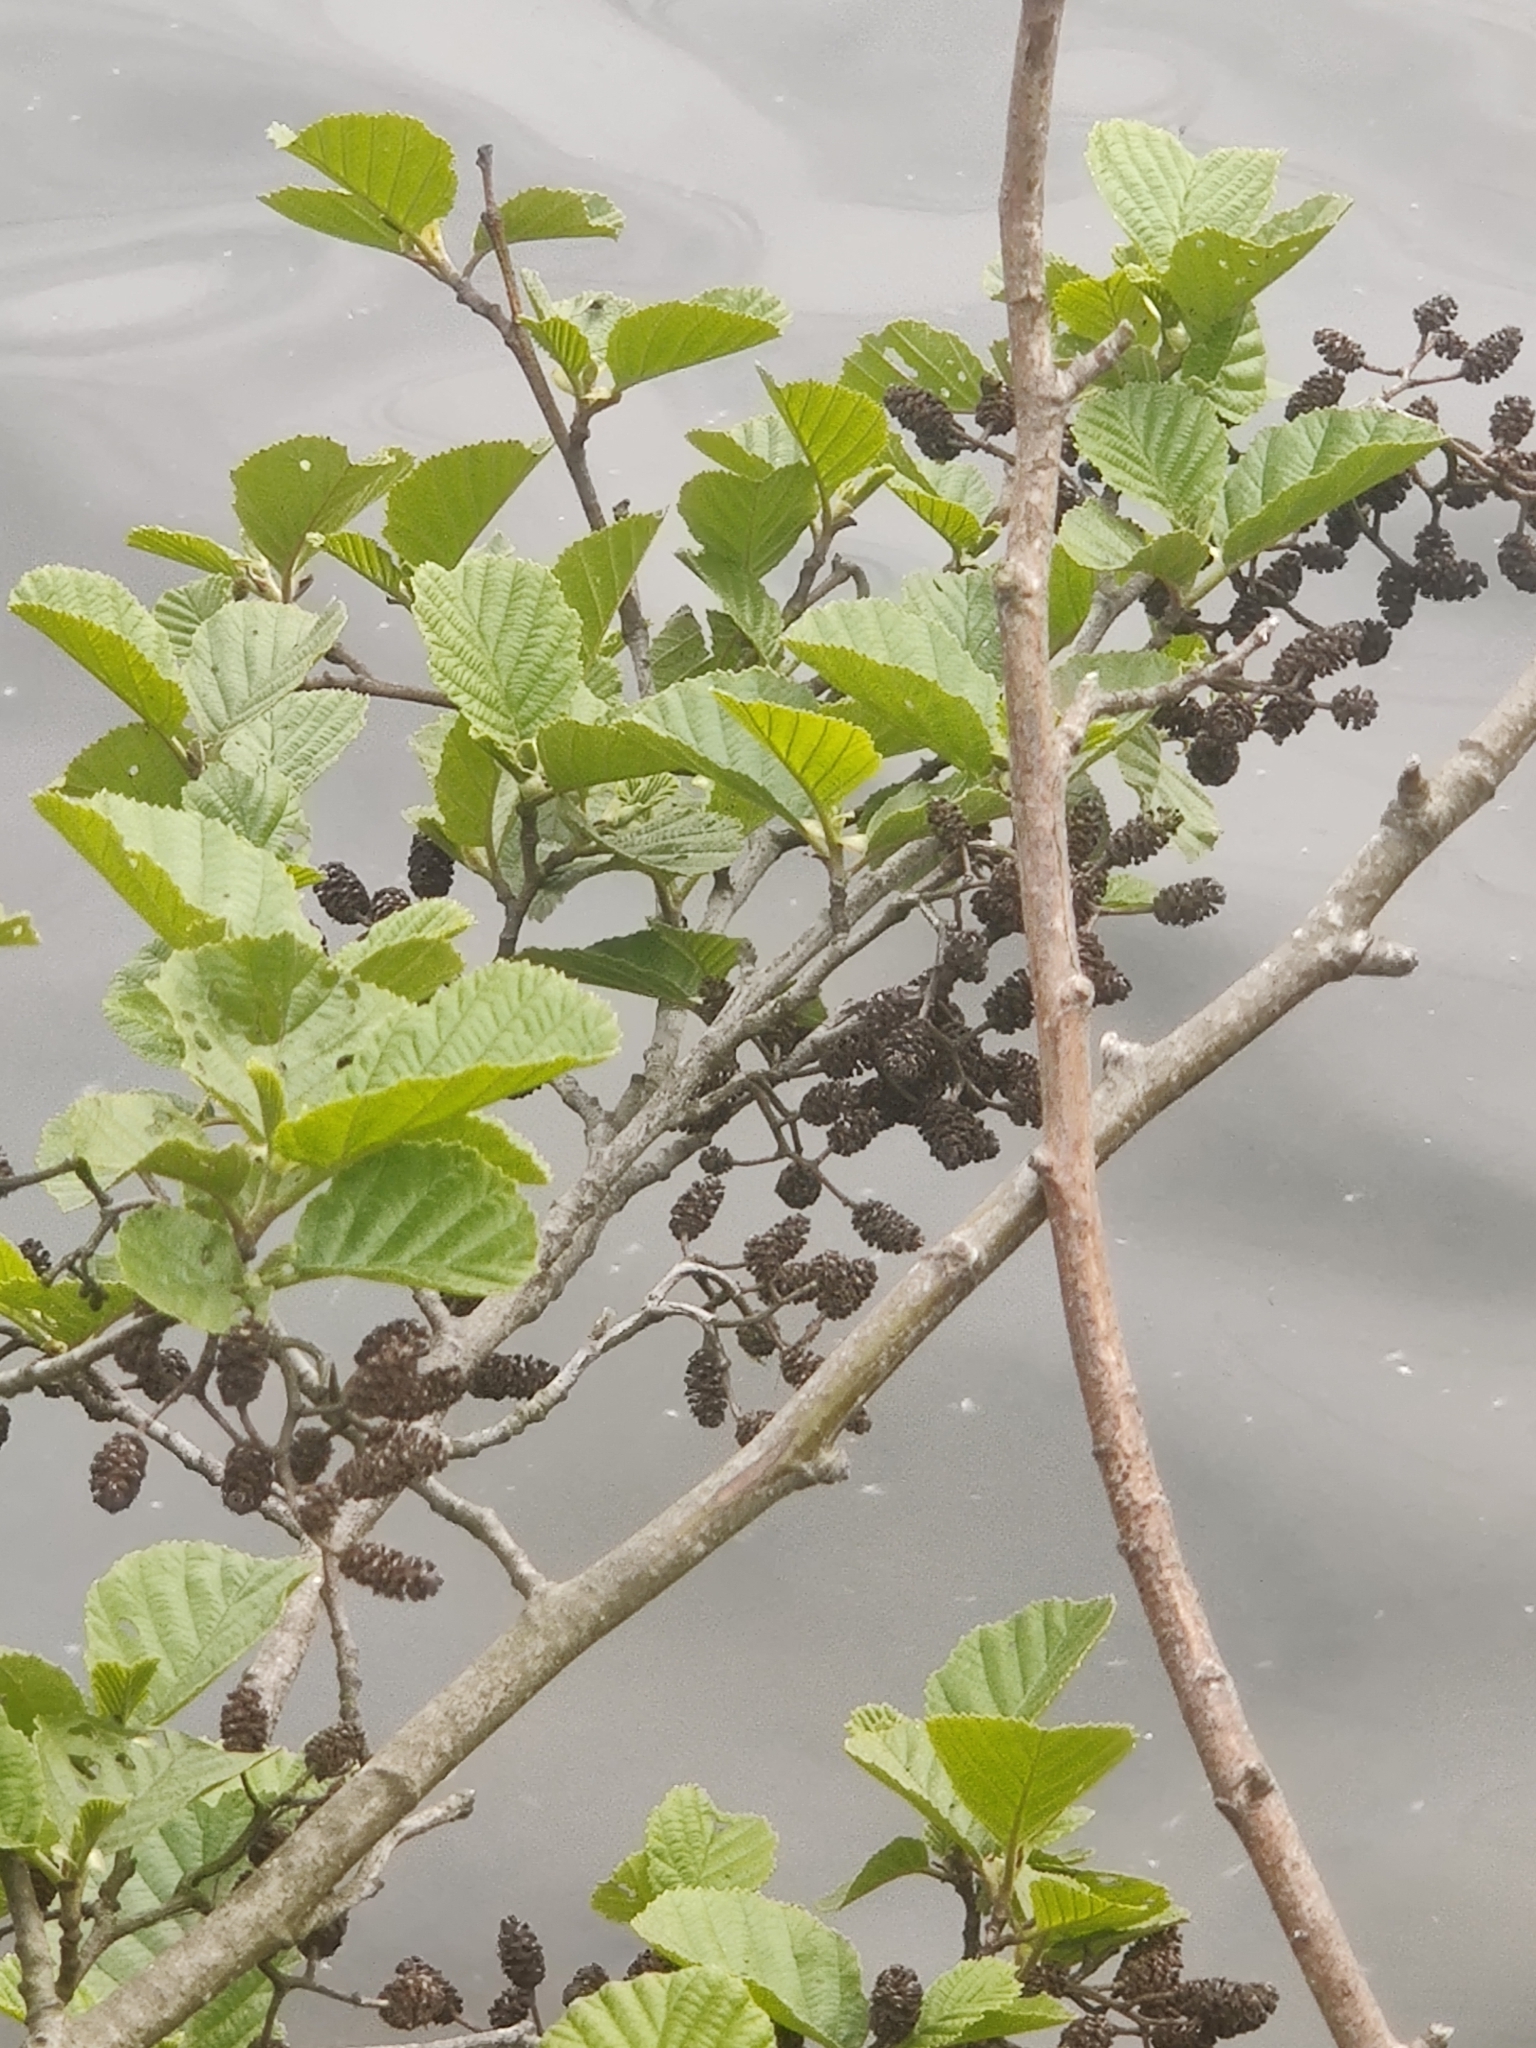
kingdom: Plantae
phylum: Tracheophyta
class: Magnoliopsida
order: Fagales
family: Betulaceae
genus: Alnus
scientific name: Alnus glutinosa
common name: Black alder
